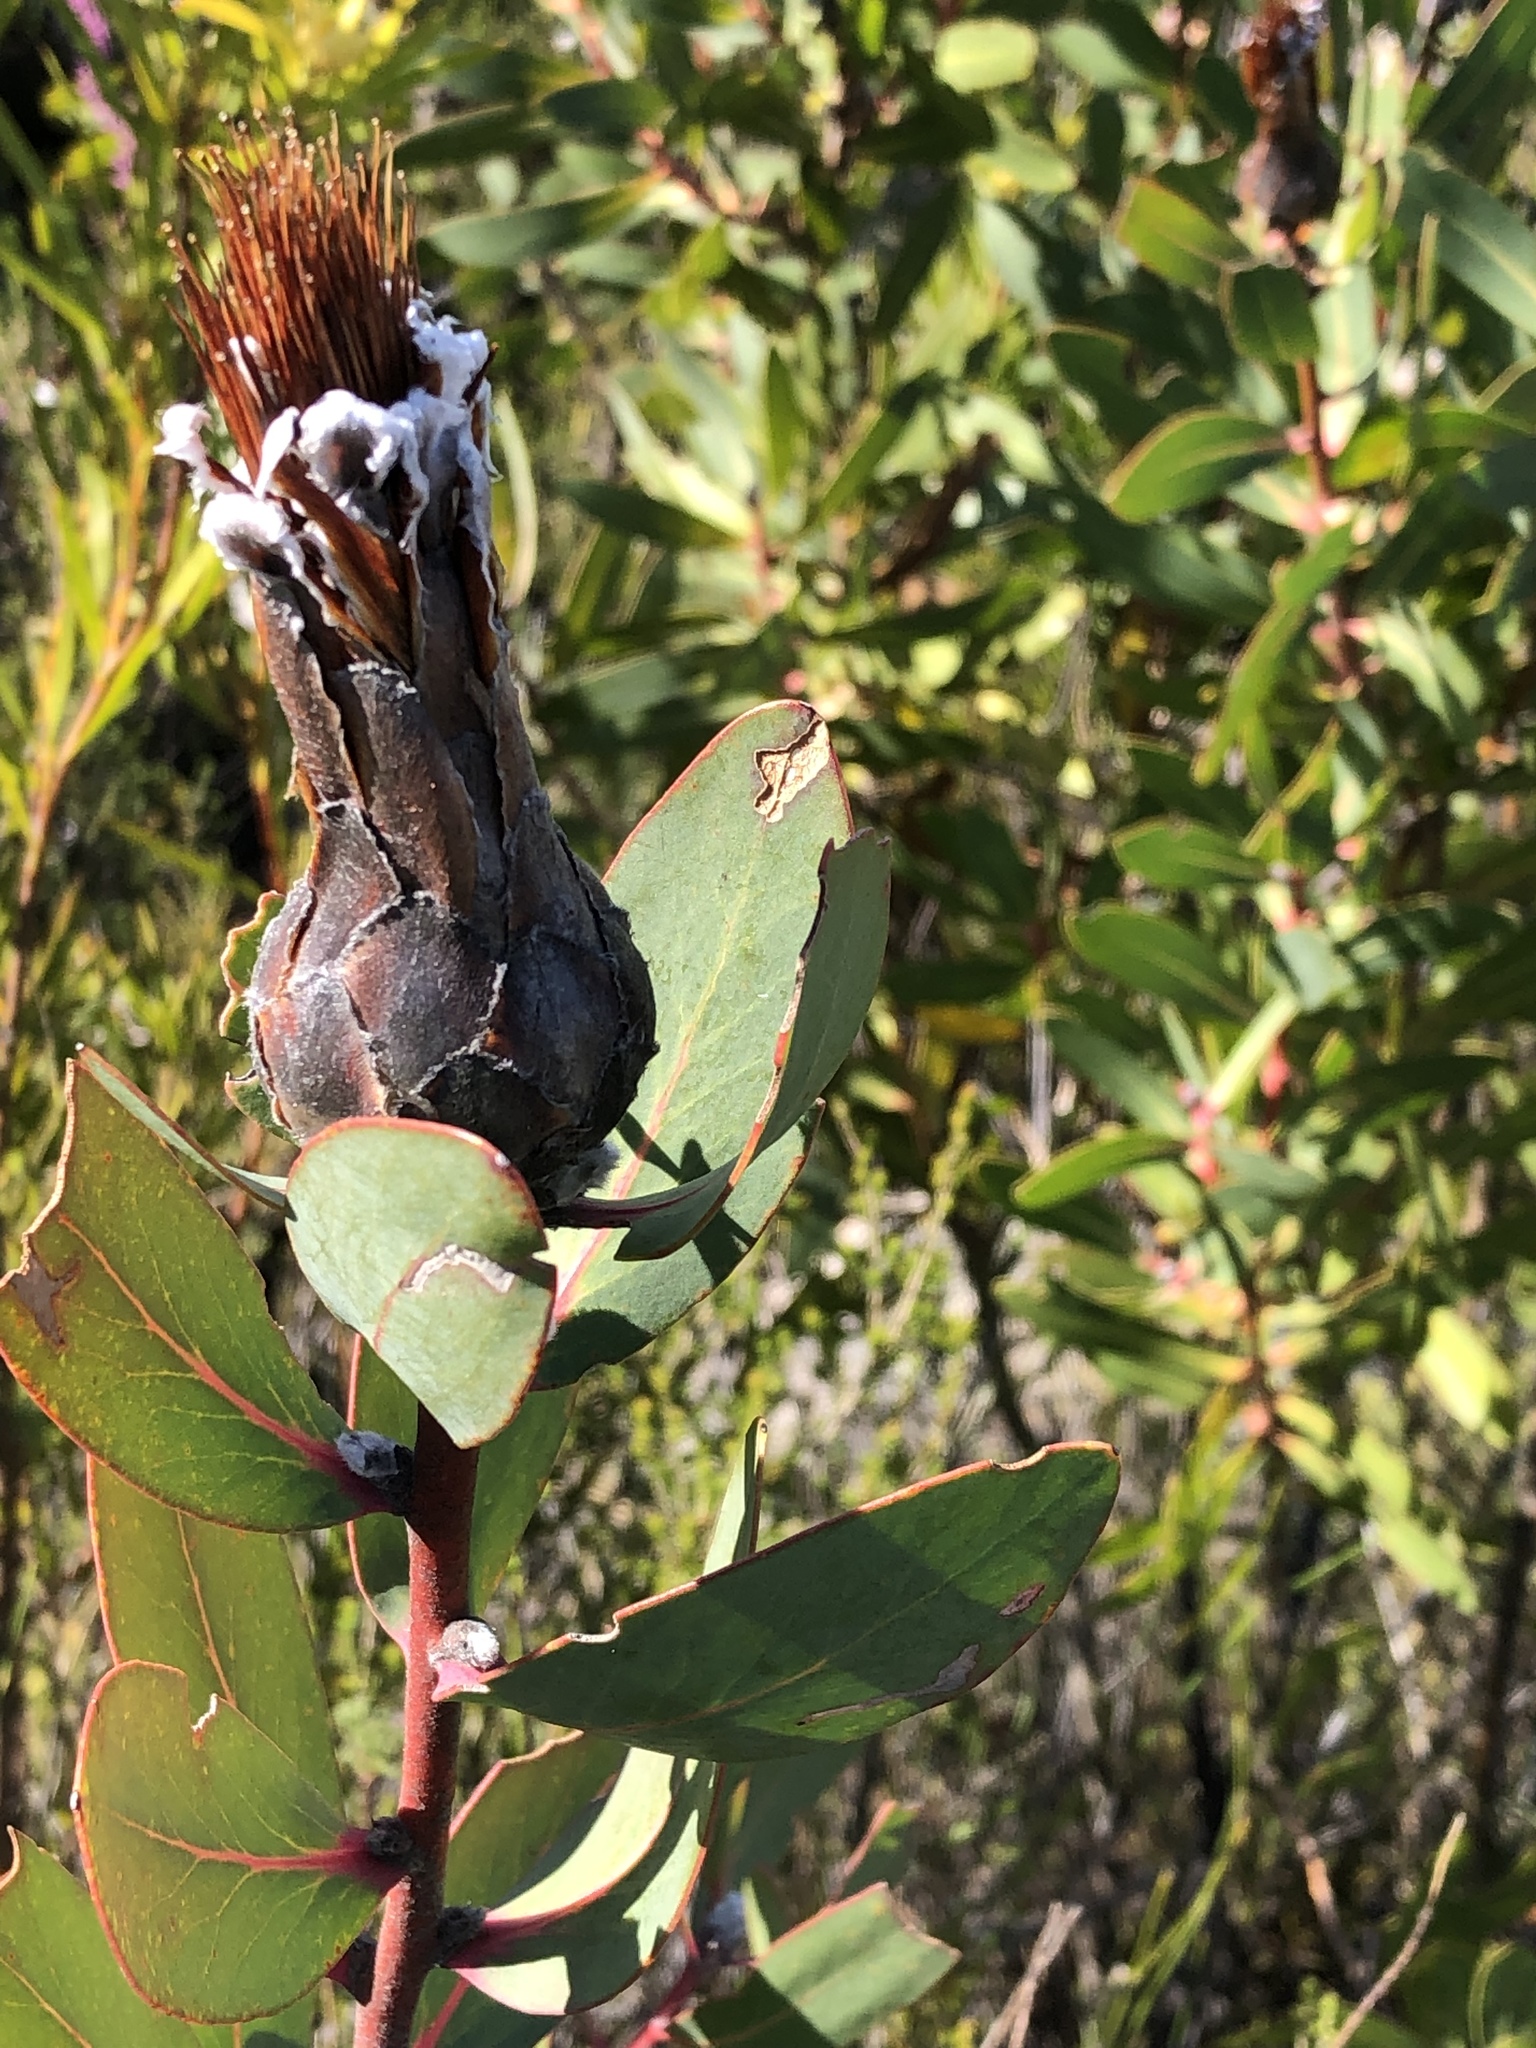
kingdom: Plantae
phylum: Tracheophyta
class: Magnoliopsida
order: Proteales
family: Proteaceae
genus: Protea
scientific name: Protea mundii
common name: Forest sugarbush
